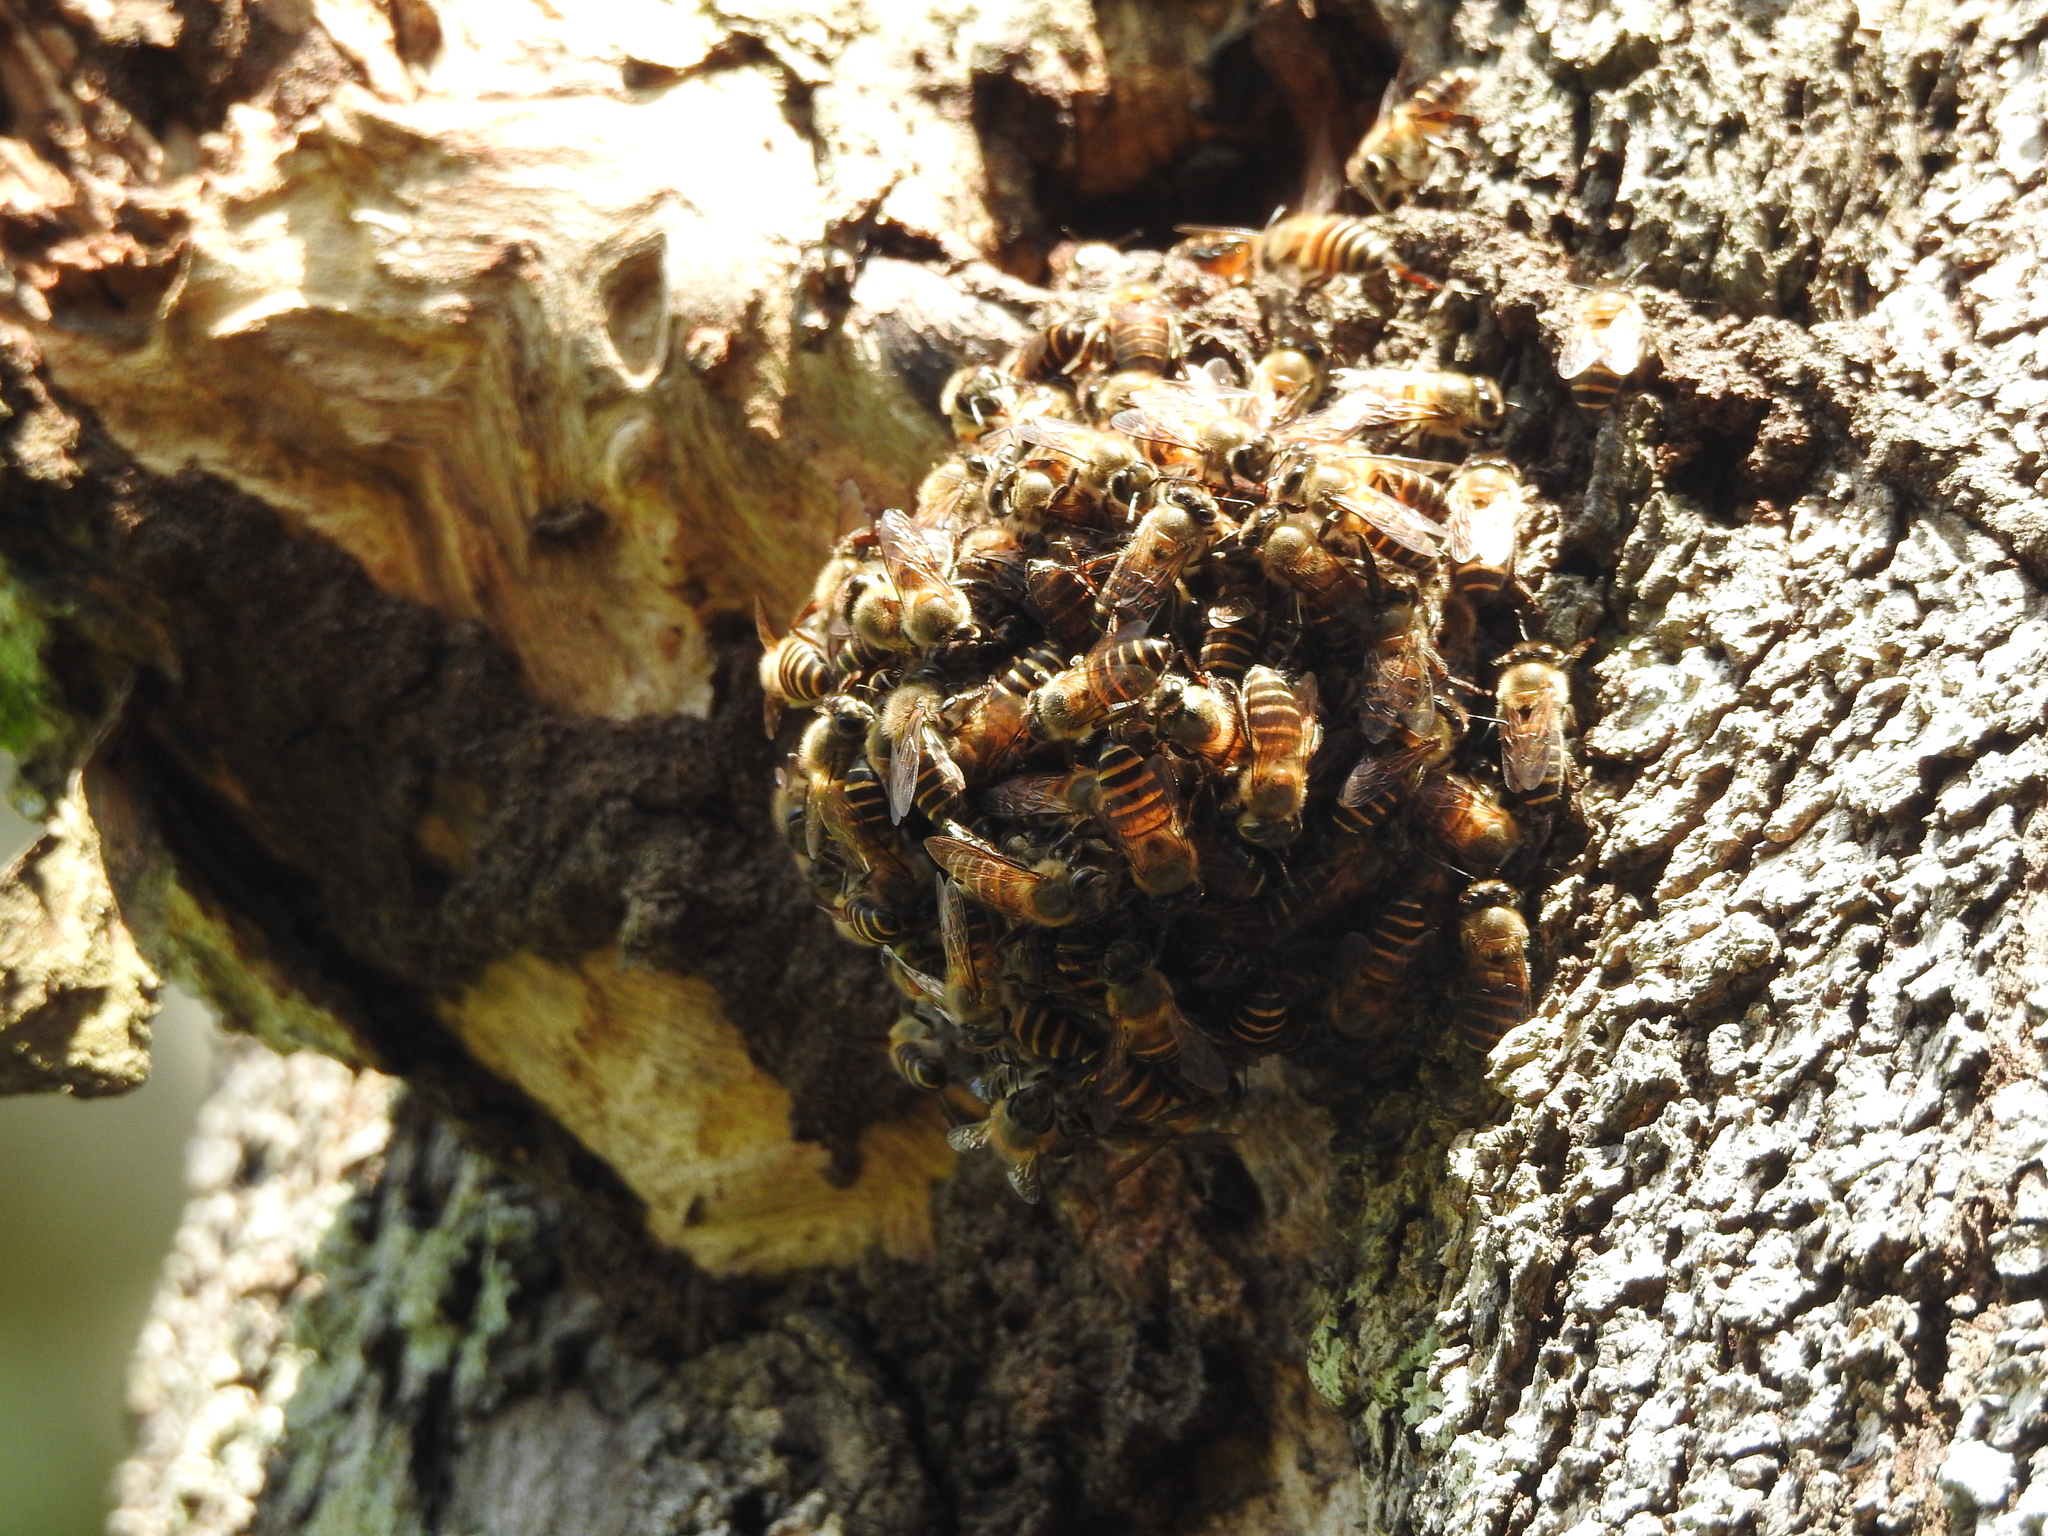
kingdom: Animalia
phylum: Arthropoda
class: Insecta
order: Hymenoptera
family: Apidae
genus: Apis
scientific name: Apis cerana
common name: Honey bee
